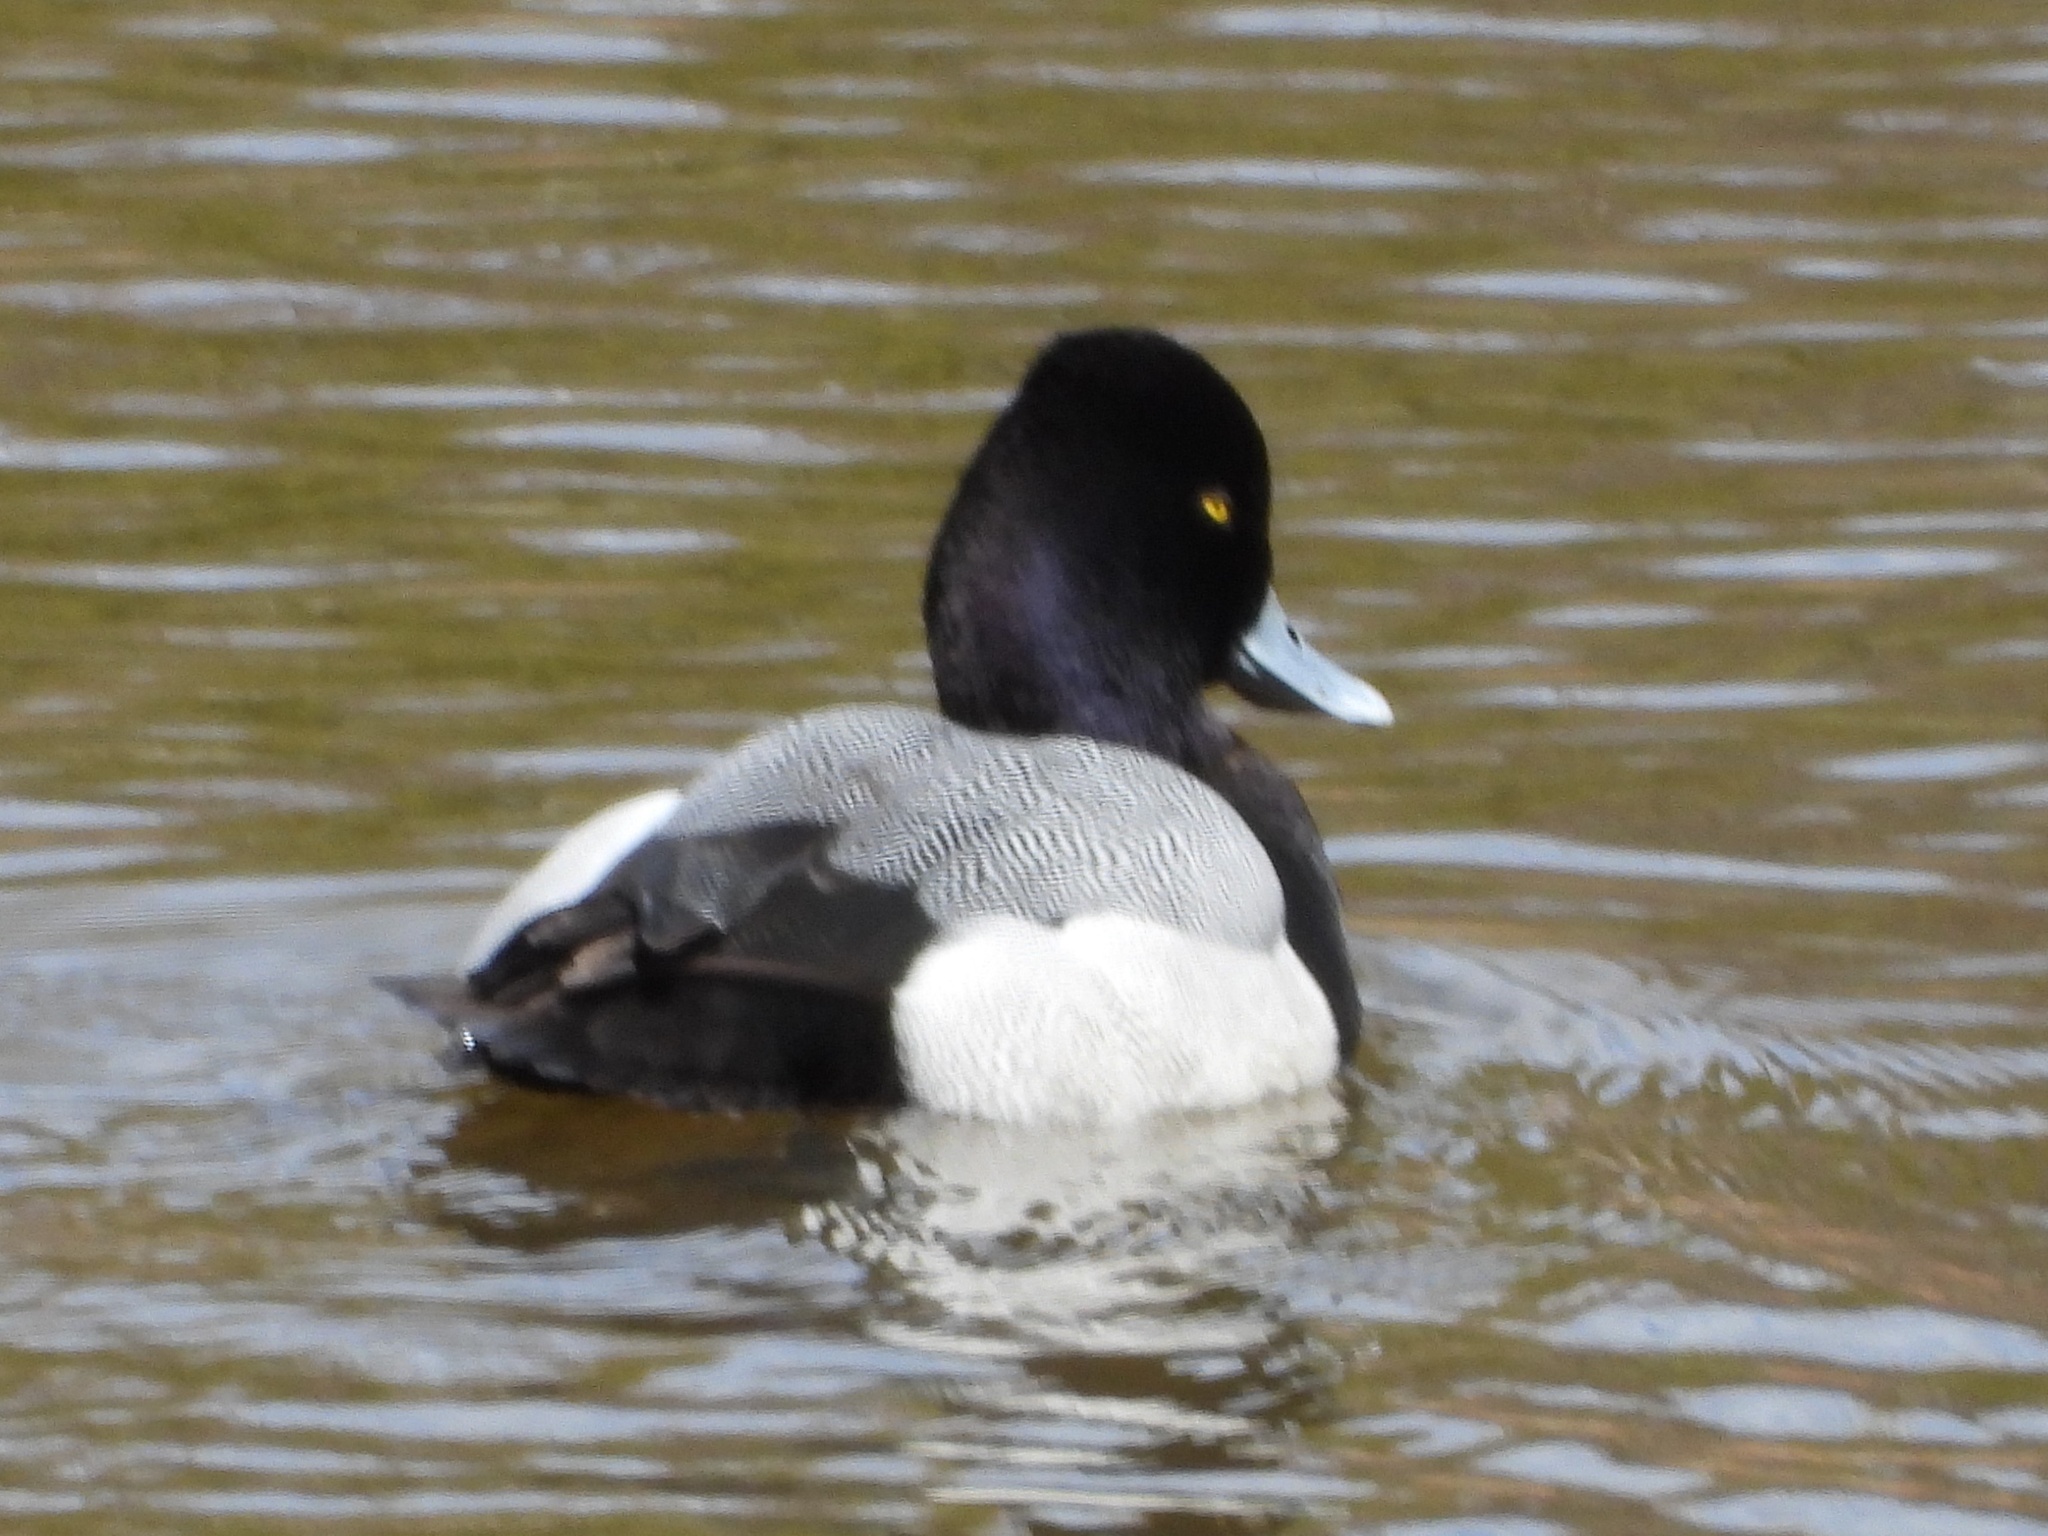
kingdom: Animalia
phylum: Chordata
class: Aves
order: Anseriformes
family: Anatidae
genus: Aythya
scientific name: Aythya affinis
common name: Lesser scaup
